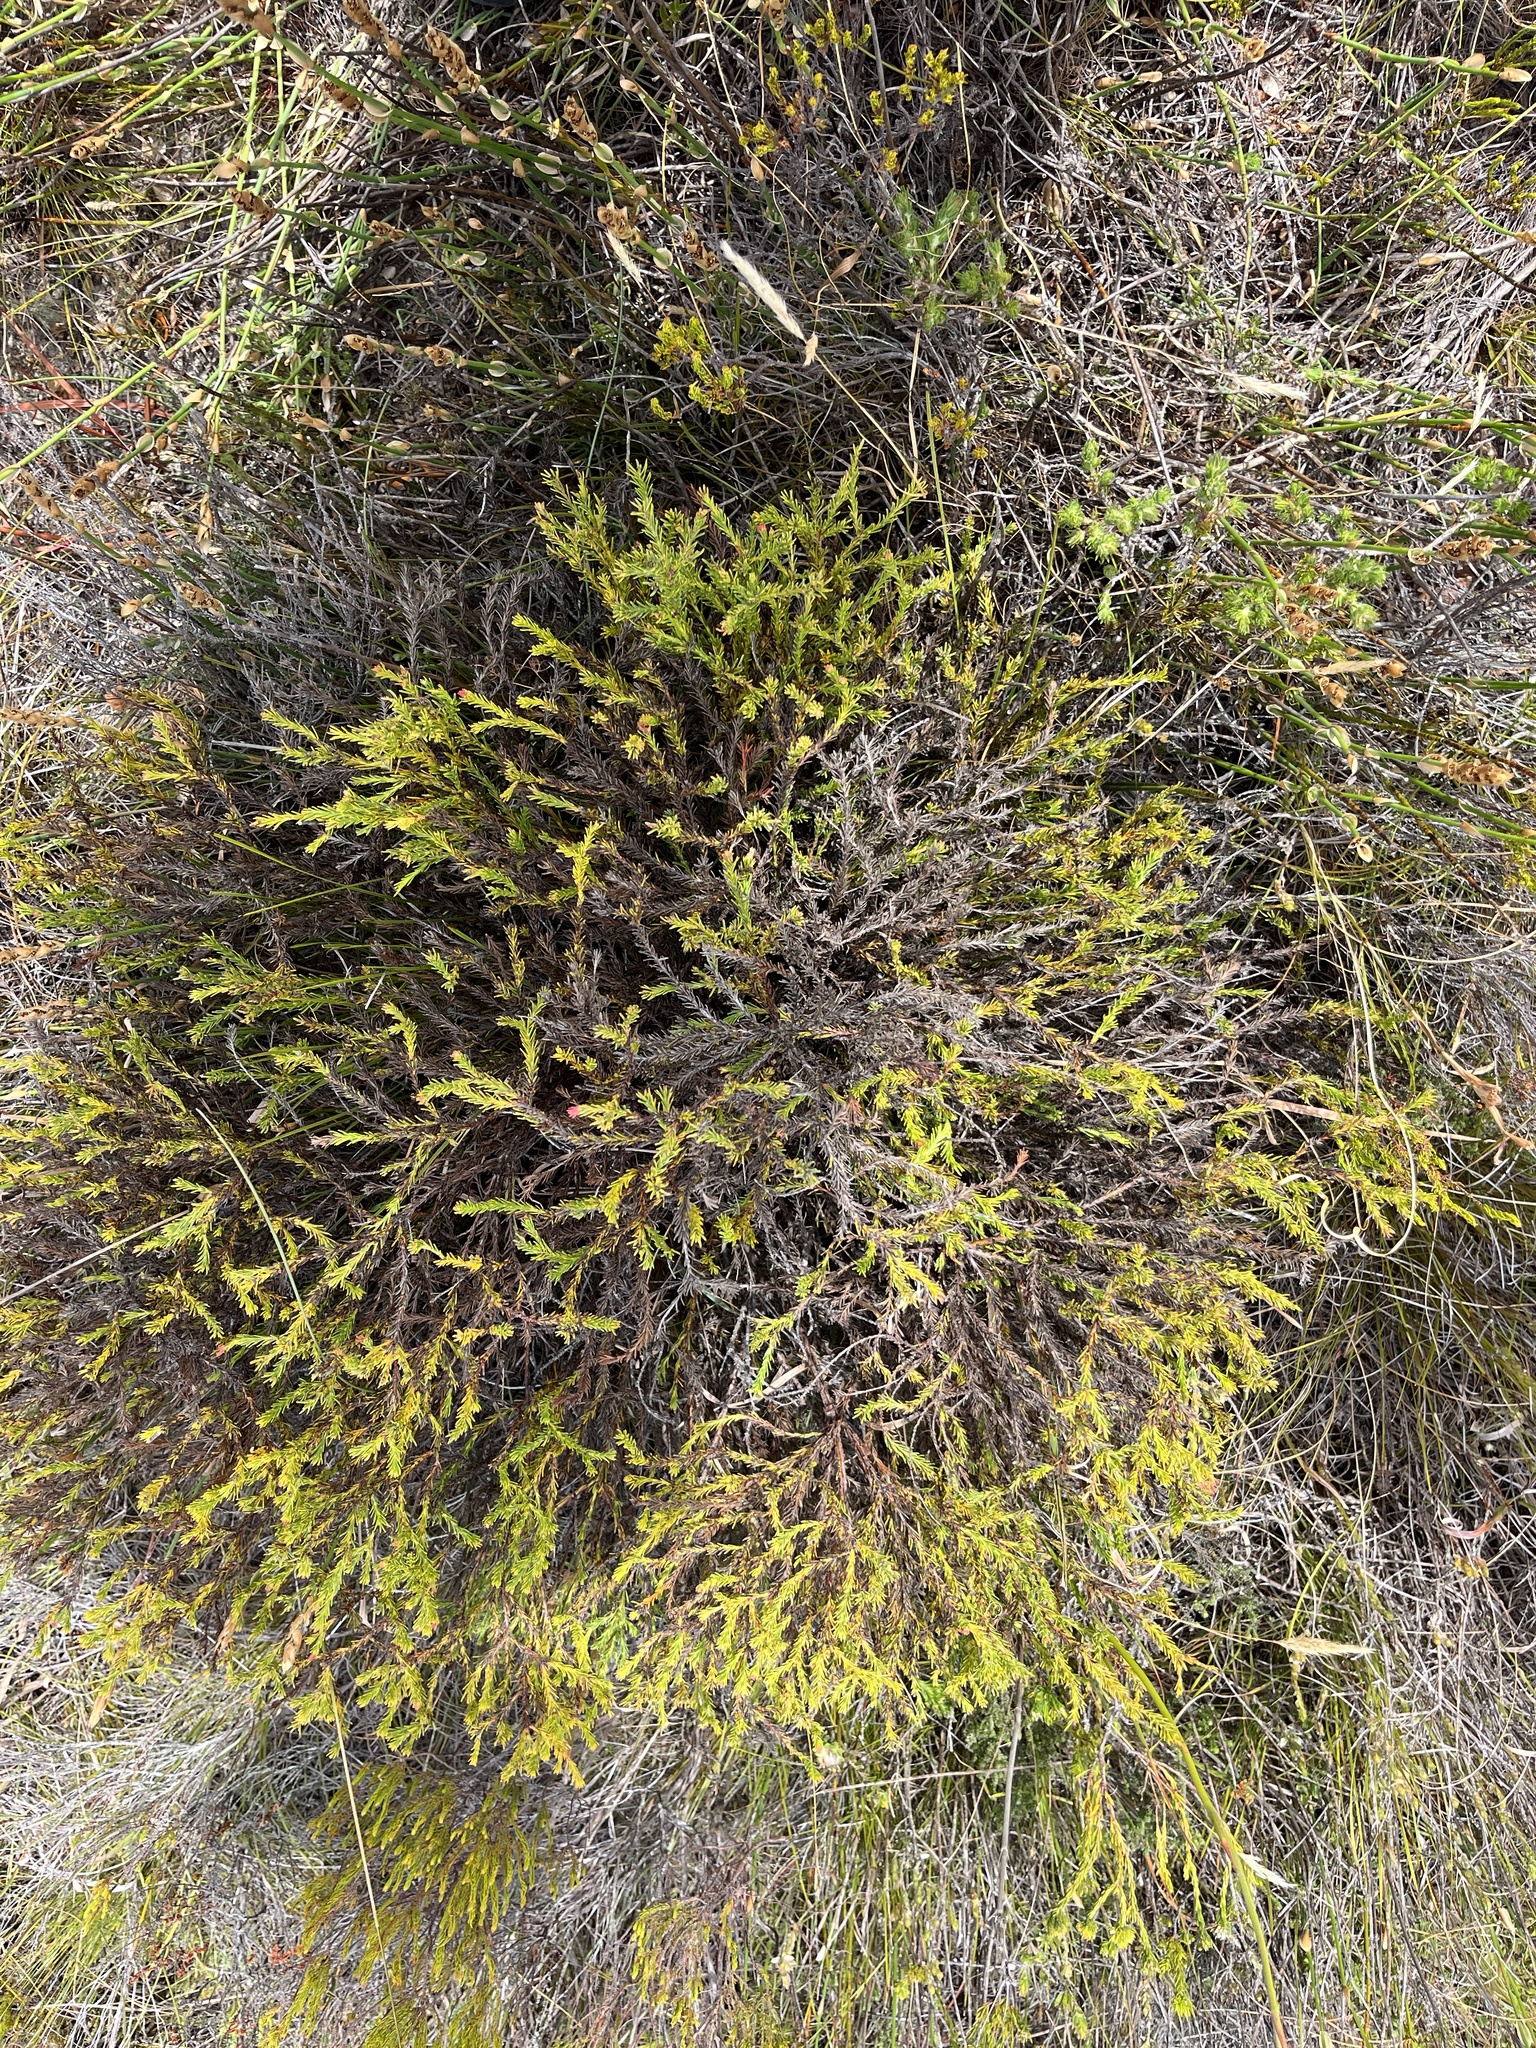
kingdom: Plantae
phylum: Tracheophyta
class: Magnoliopsida
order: Proteales
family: Proteaceae
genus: Protea
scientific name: Protea subulifolia
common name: Awl-leaf sugarbush
